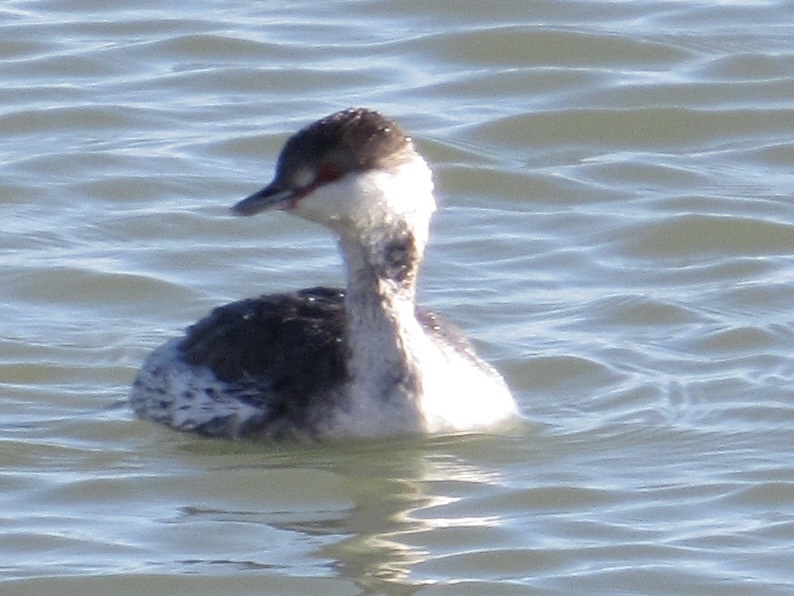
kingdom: Animalia
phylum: Chordata
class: Aves
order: Podicipediformes
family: Podicipedidae
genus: Podiceps
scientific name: Podiceps auritus
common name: Horned grebe
